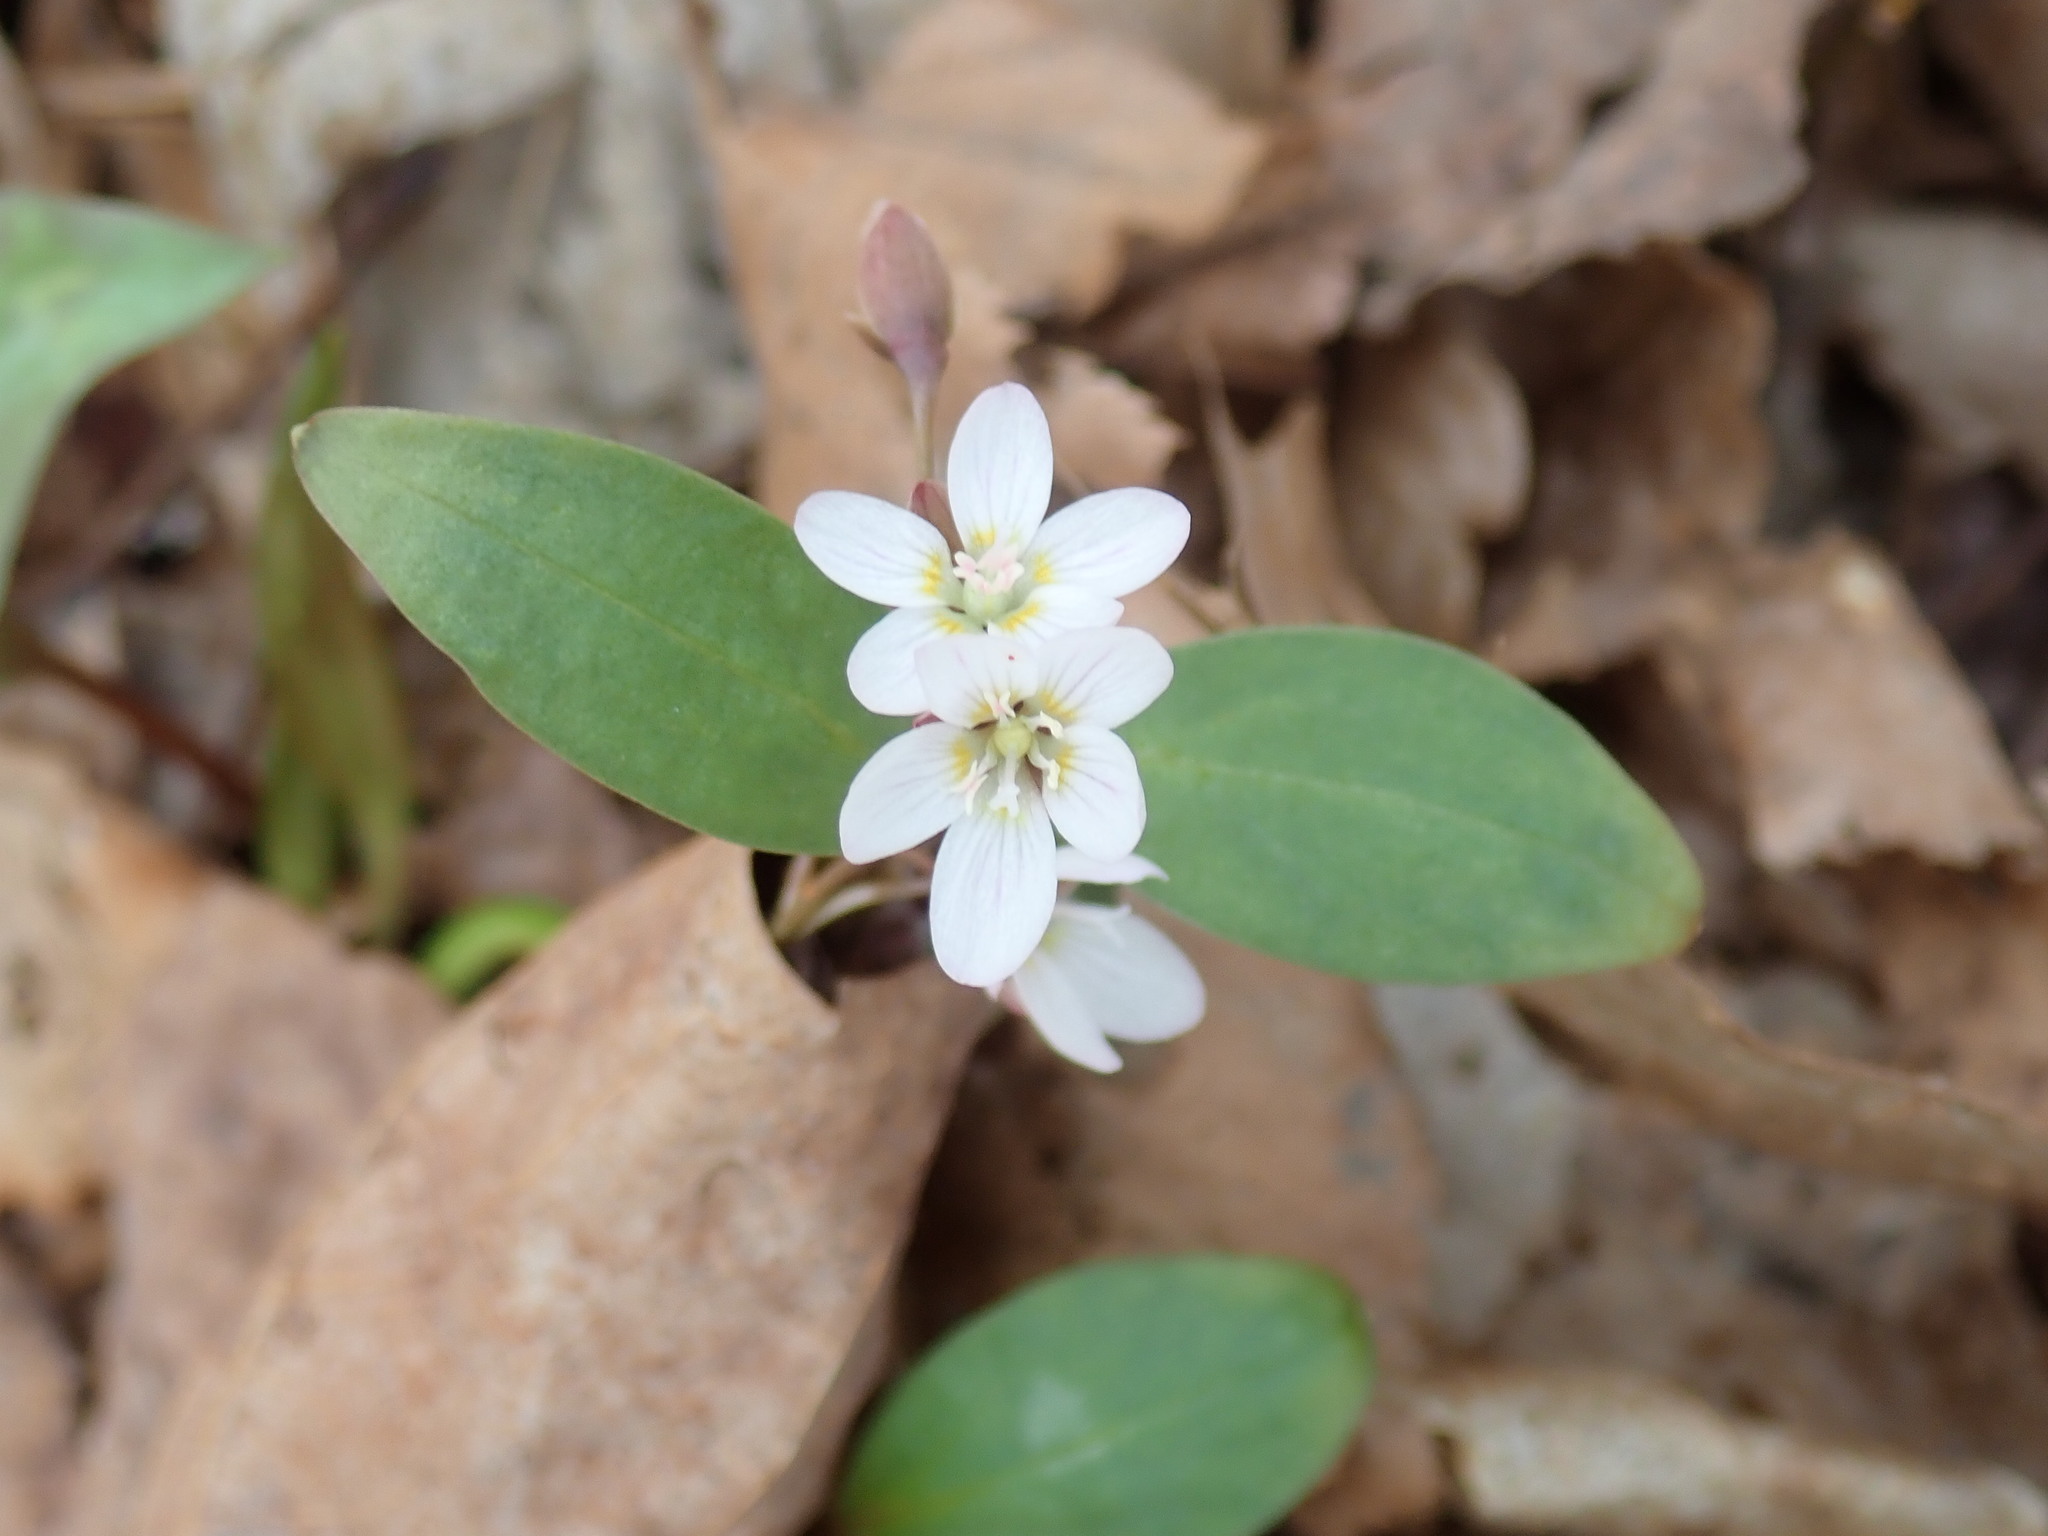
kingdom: Plantae
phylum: Tracheophyta
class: Magnoliopsida
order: Caryophyllales
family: Montiaceae
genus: Claytonia
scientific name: Claytonia caroliniana
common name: Carolina spring beauty
